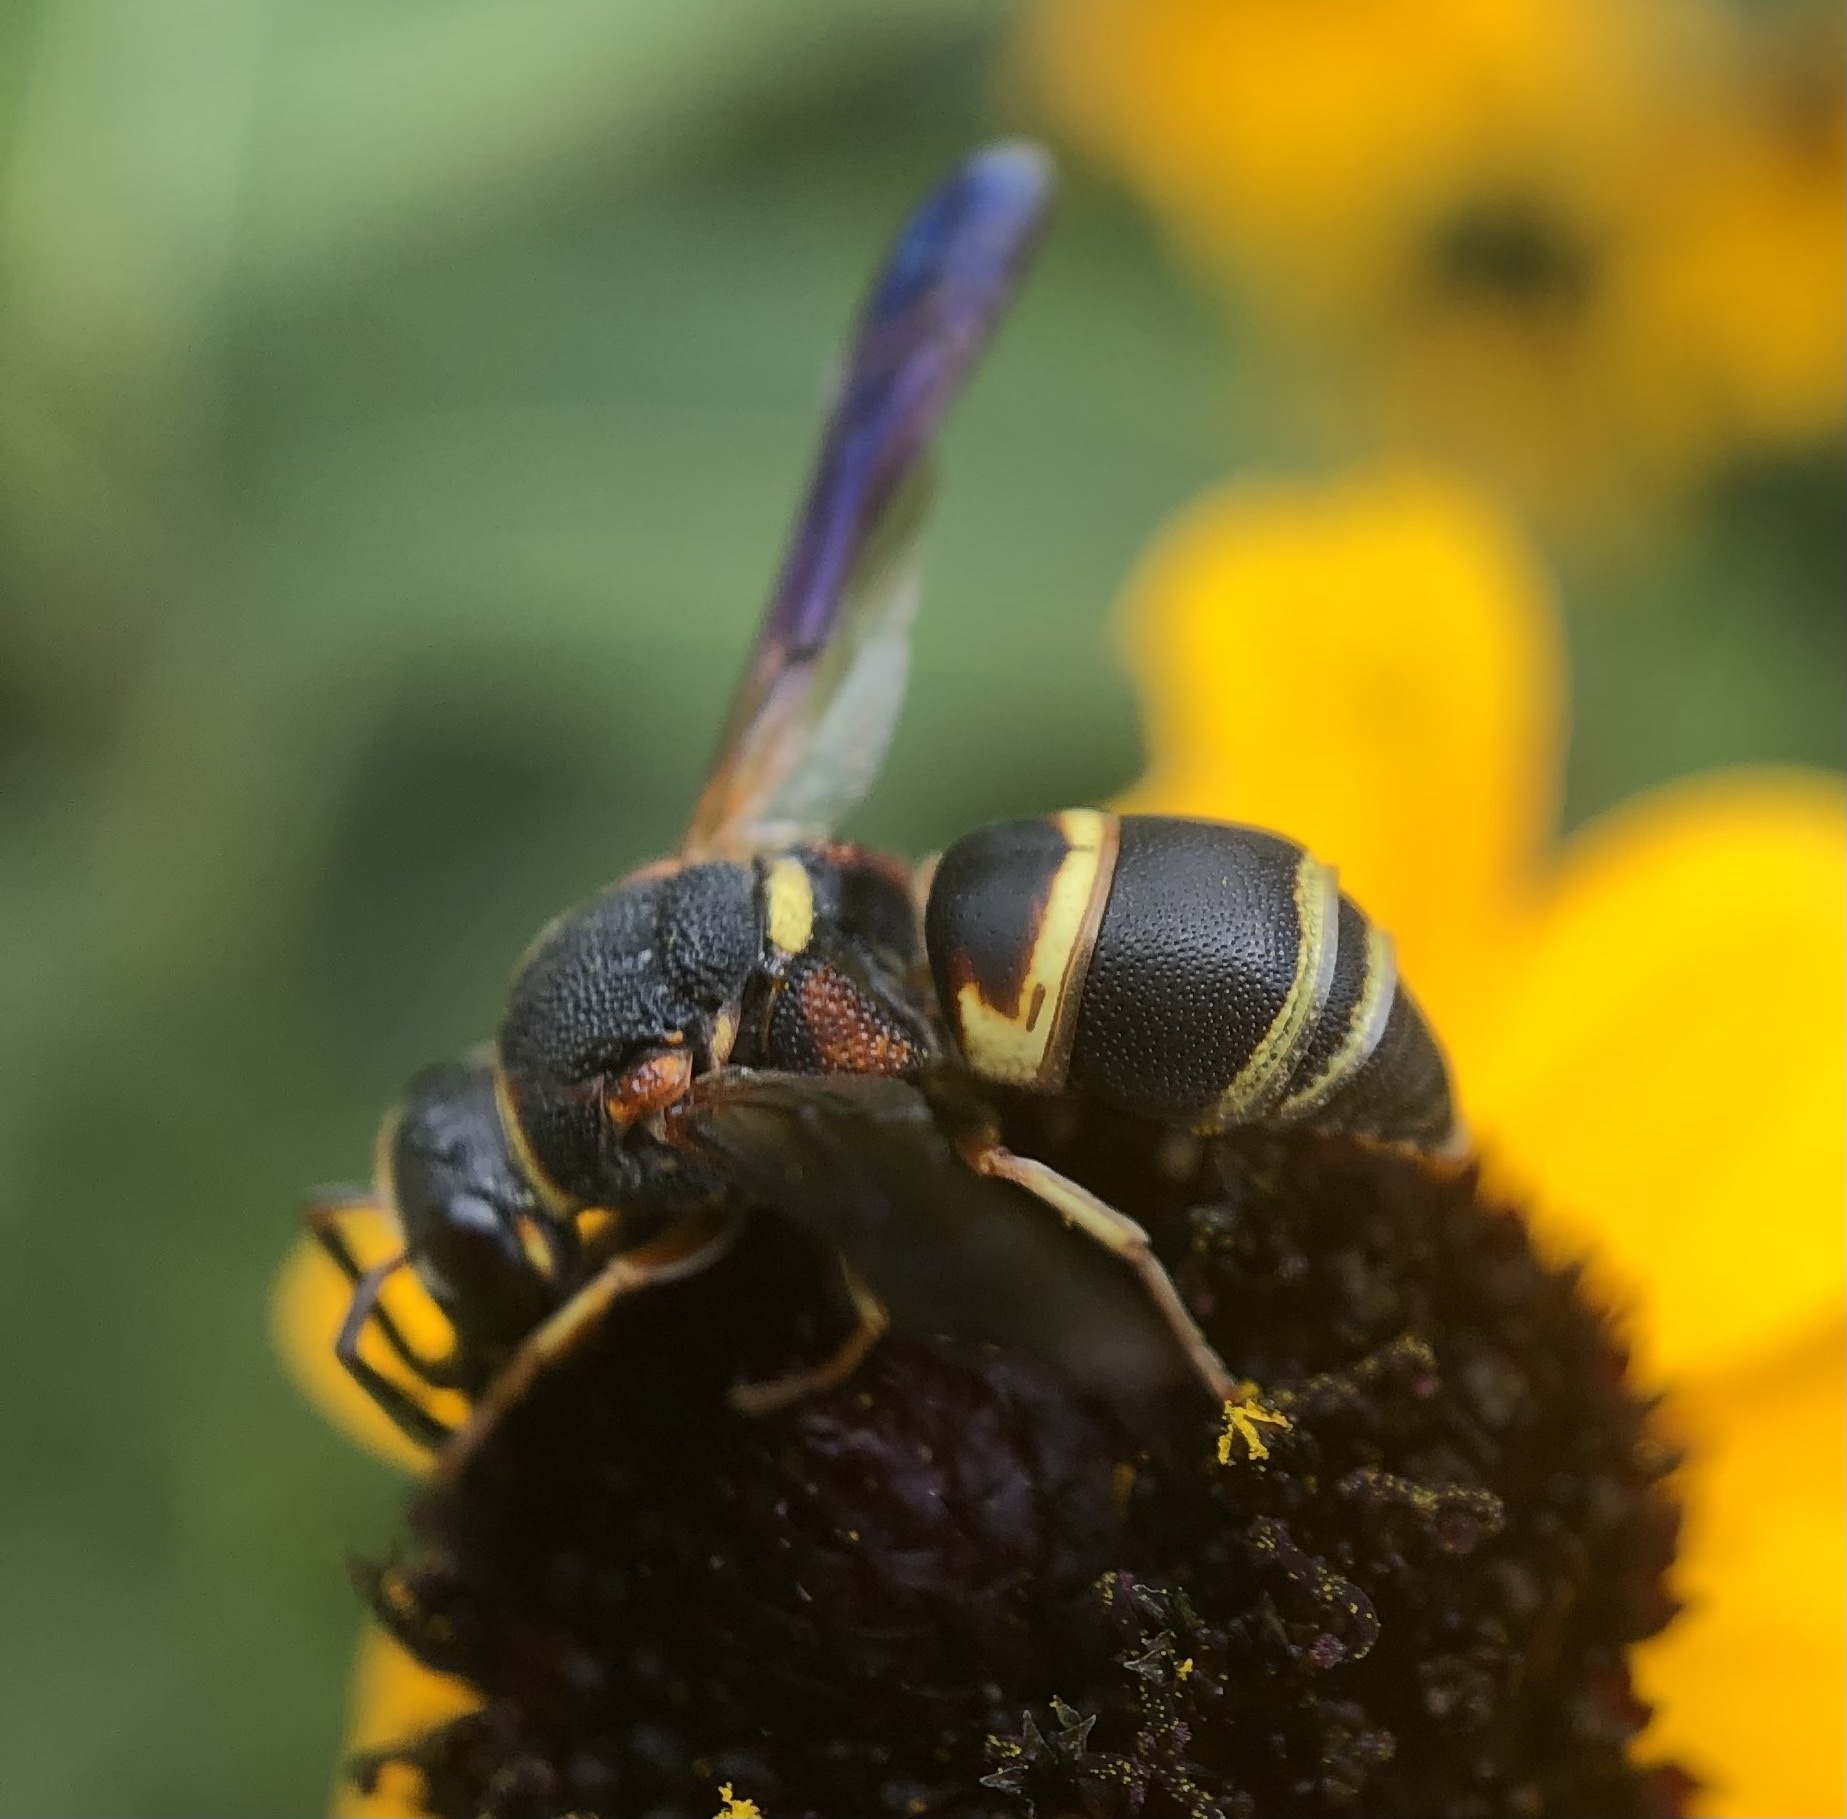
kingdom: Animalia
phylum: Arthropoda
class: Insecta
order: Hymenoptera
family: Eumenidae
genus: Euodynerus
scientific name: Euodynerus hidalgo
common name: Wasp
